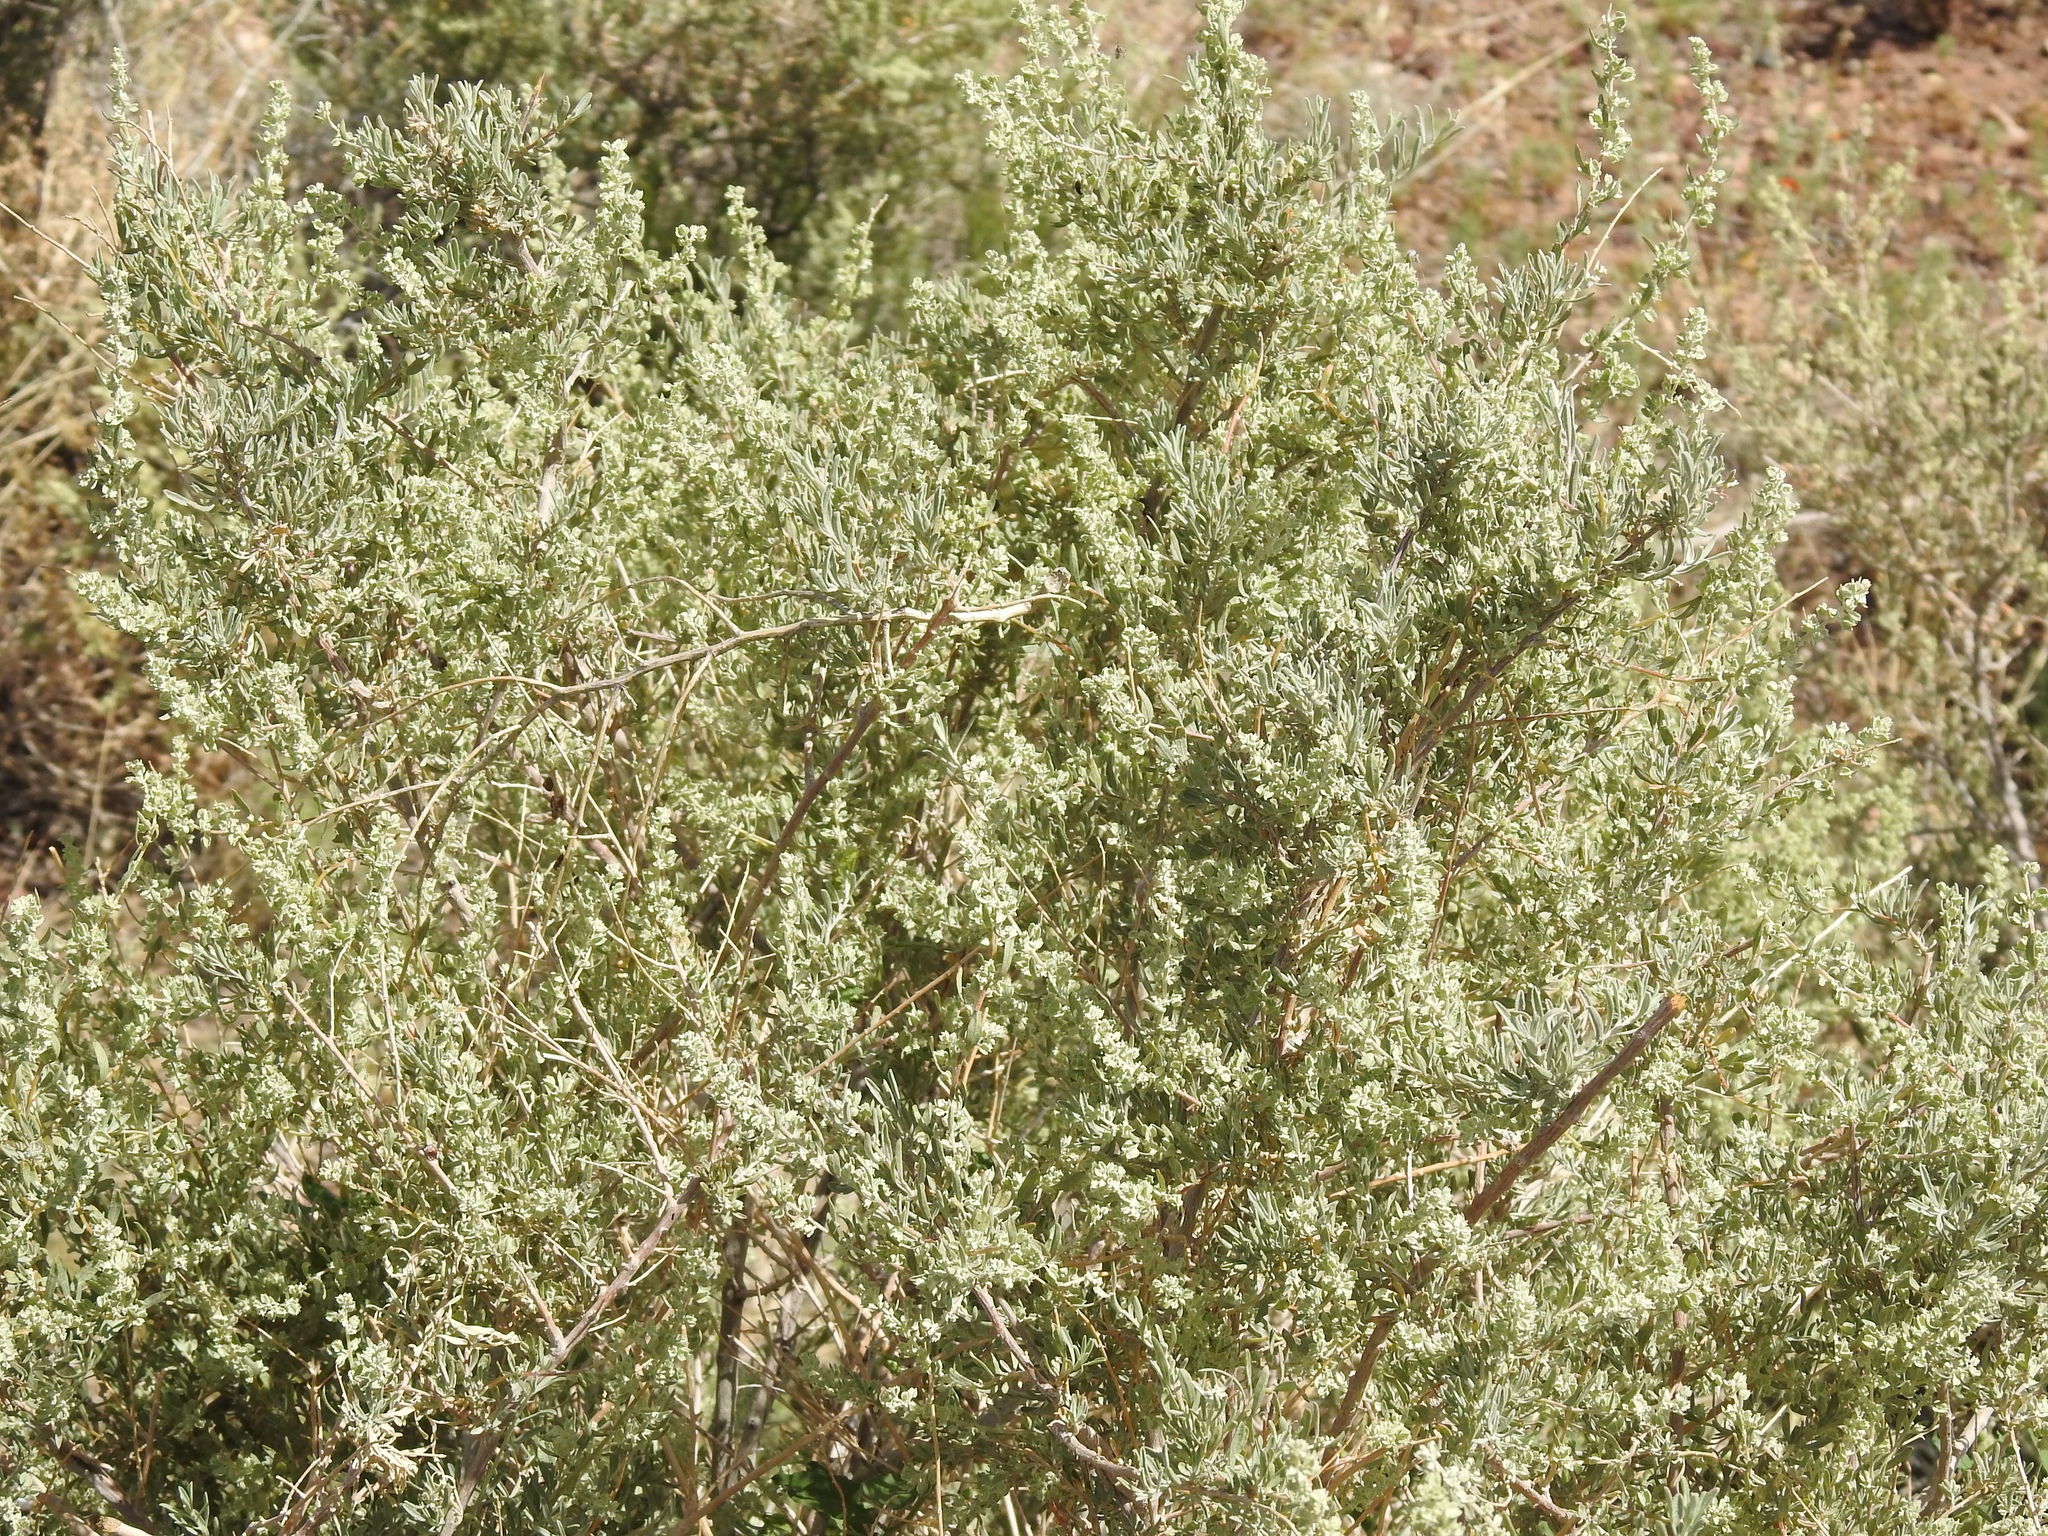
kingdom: Plantae
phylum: Tracheophyta
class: Magnoliopsida
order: Caryophyllales
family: Amaranthaceae
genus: Atriplex
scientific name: Atriplex canescens
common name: Four-wing saltbush
